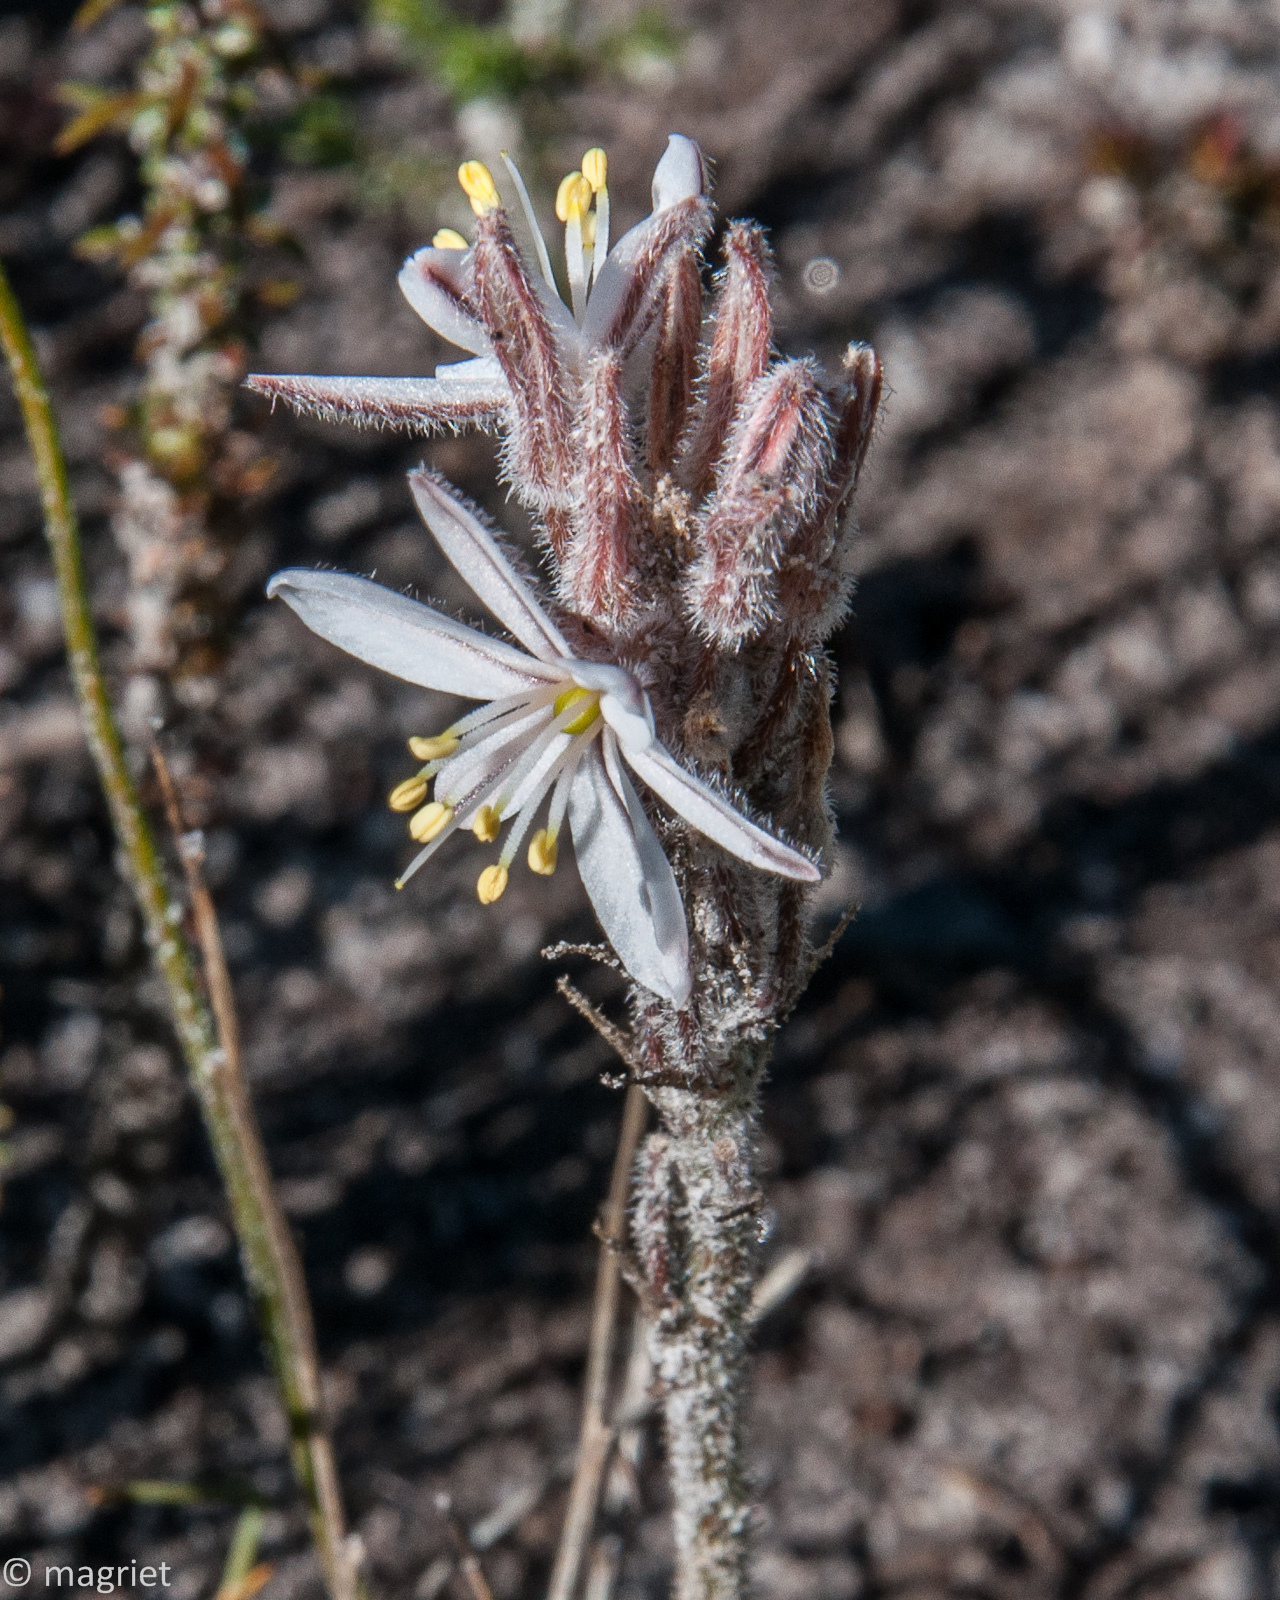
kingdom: Plantae
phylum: Tracheophyta
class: Liliopsida
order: Asparagales
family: Asphodelaceae
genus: Trachyandra
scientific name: Trachyandra hirsutiflora
